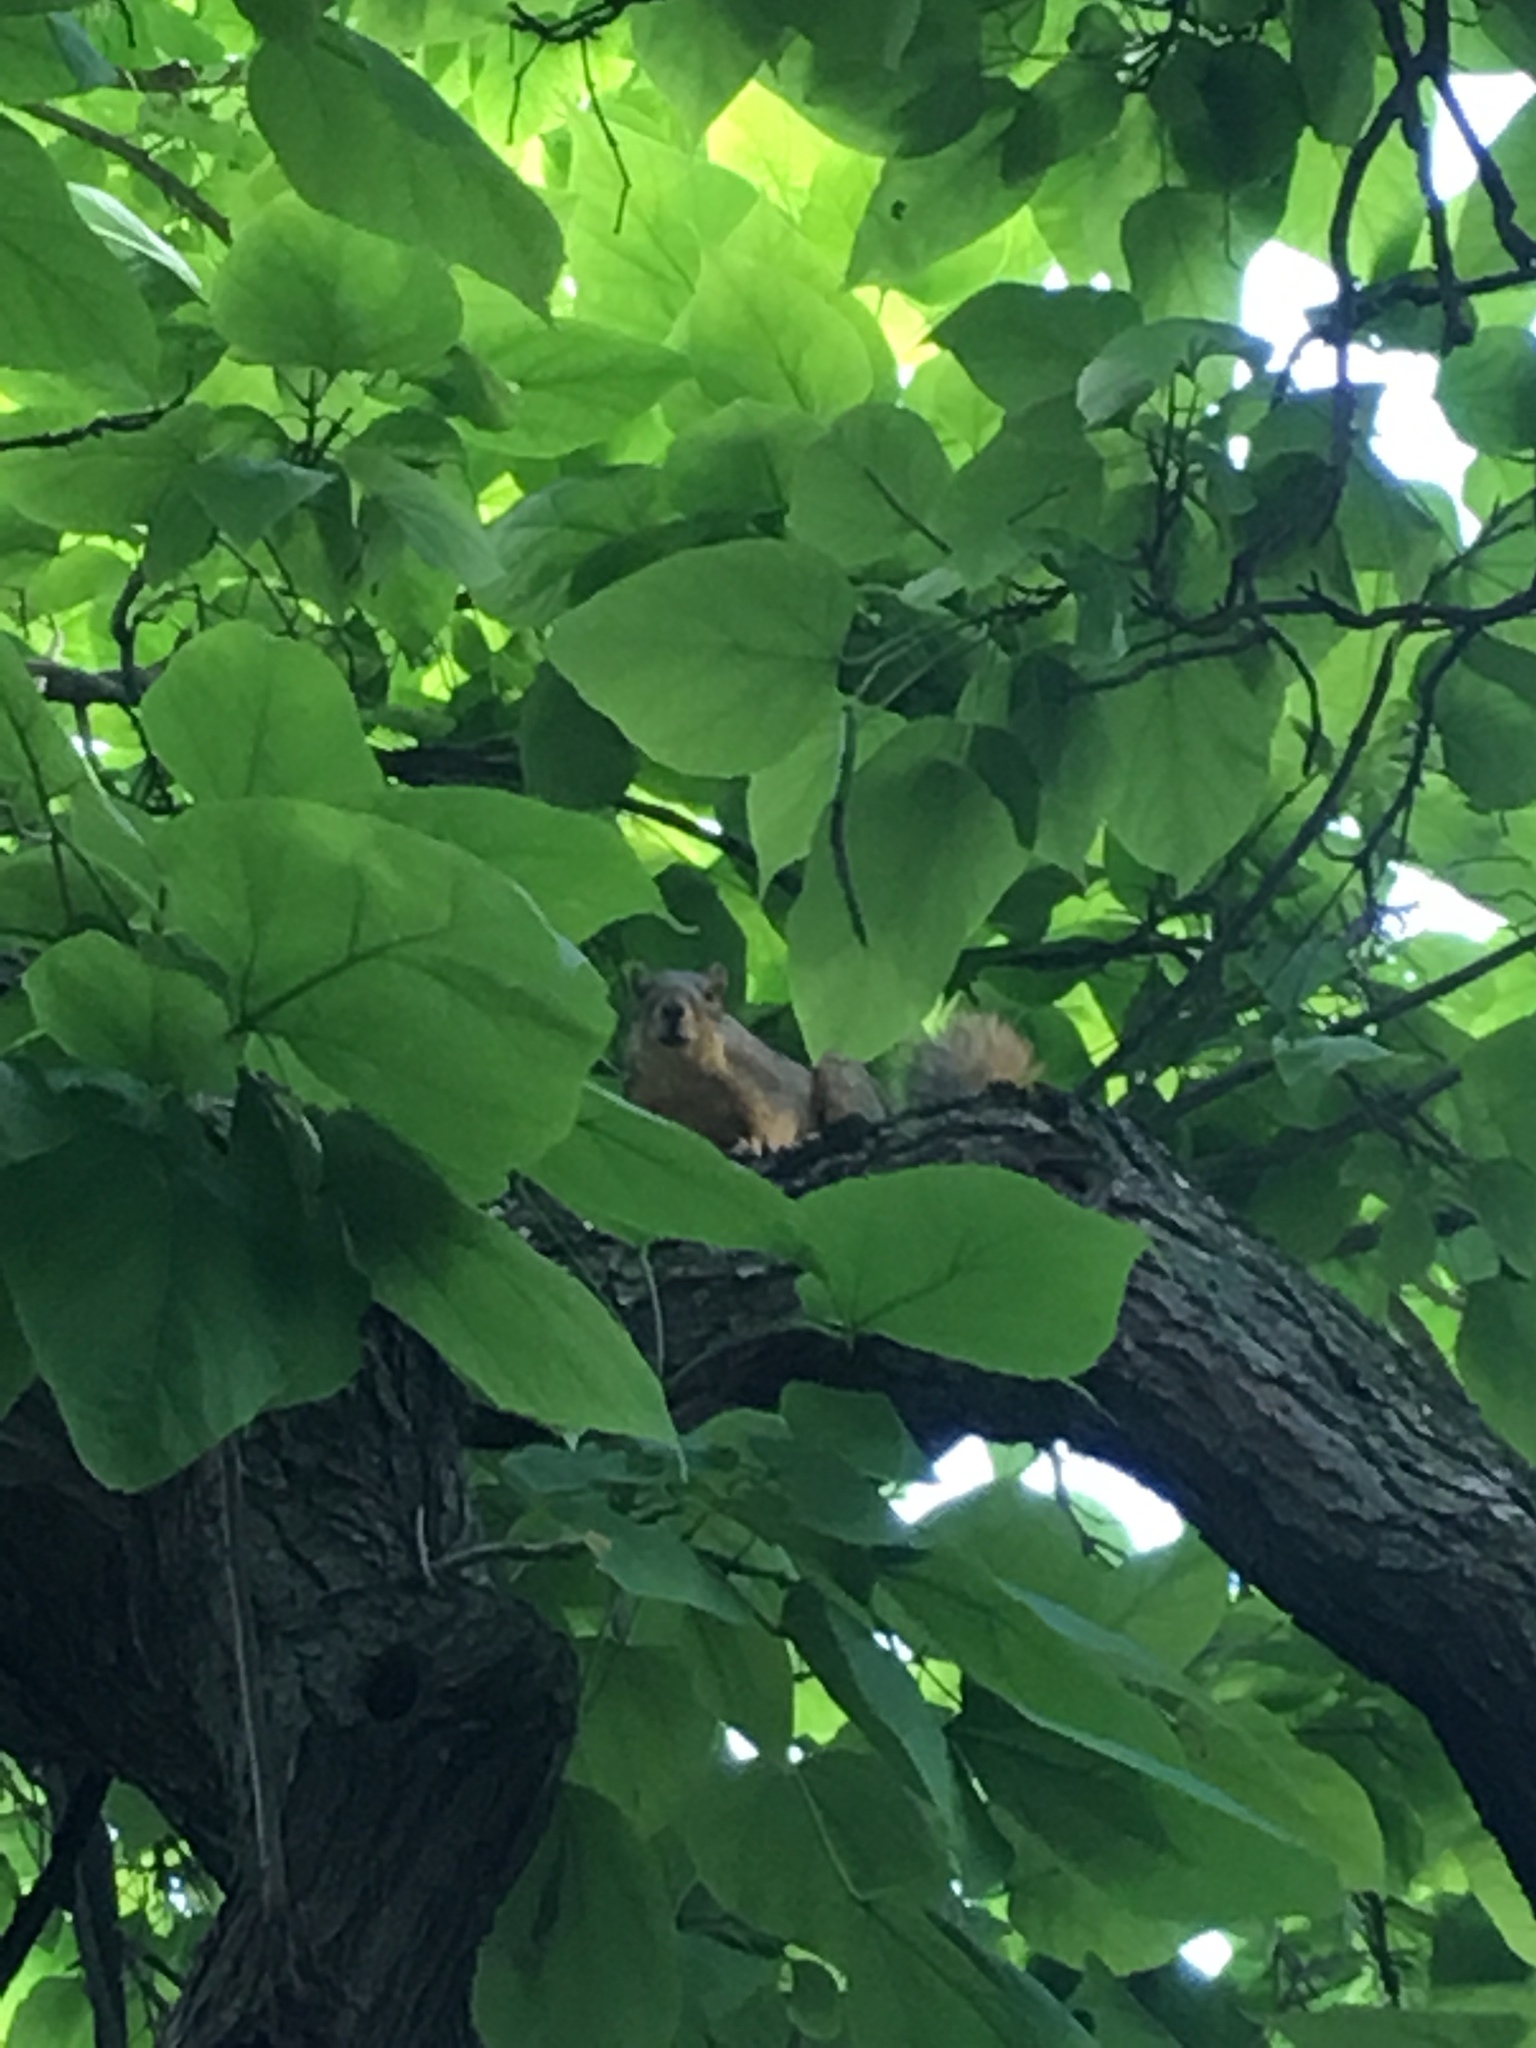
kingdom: Animalia
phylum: Chordata
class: Mammalia
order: Rodentia
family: Sciuridae
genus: Sciurus
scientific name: Sciurus niger
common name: Fox squirrel
